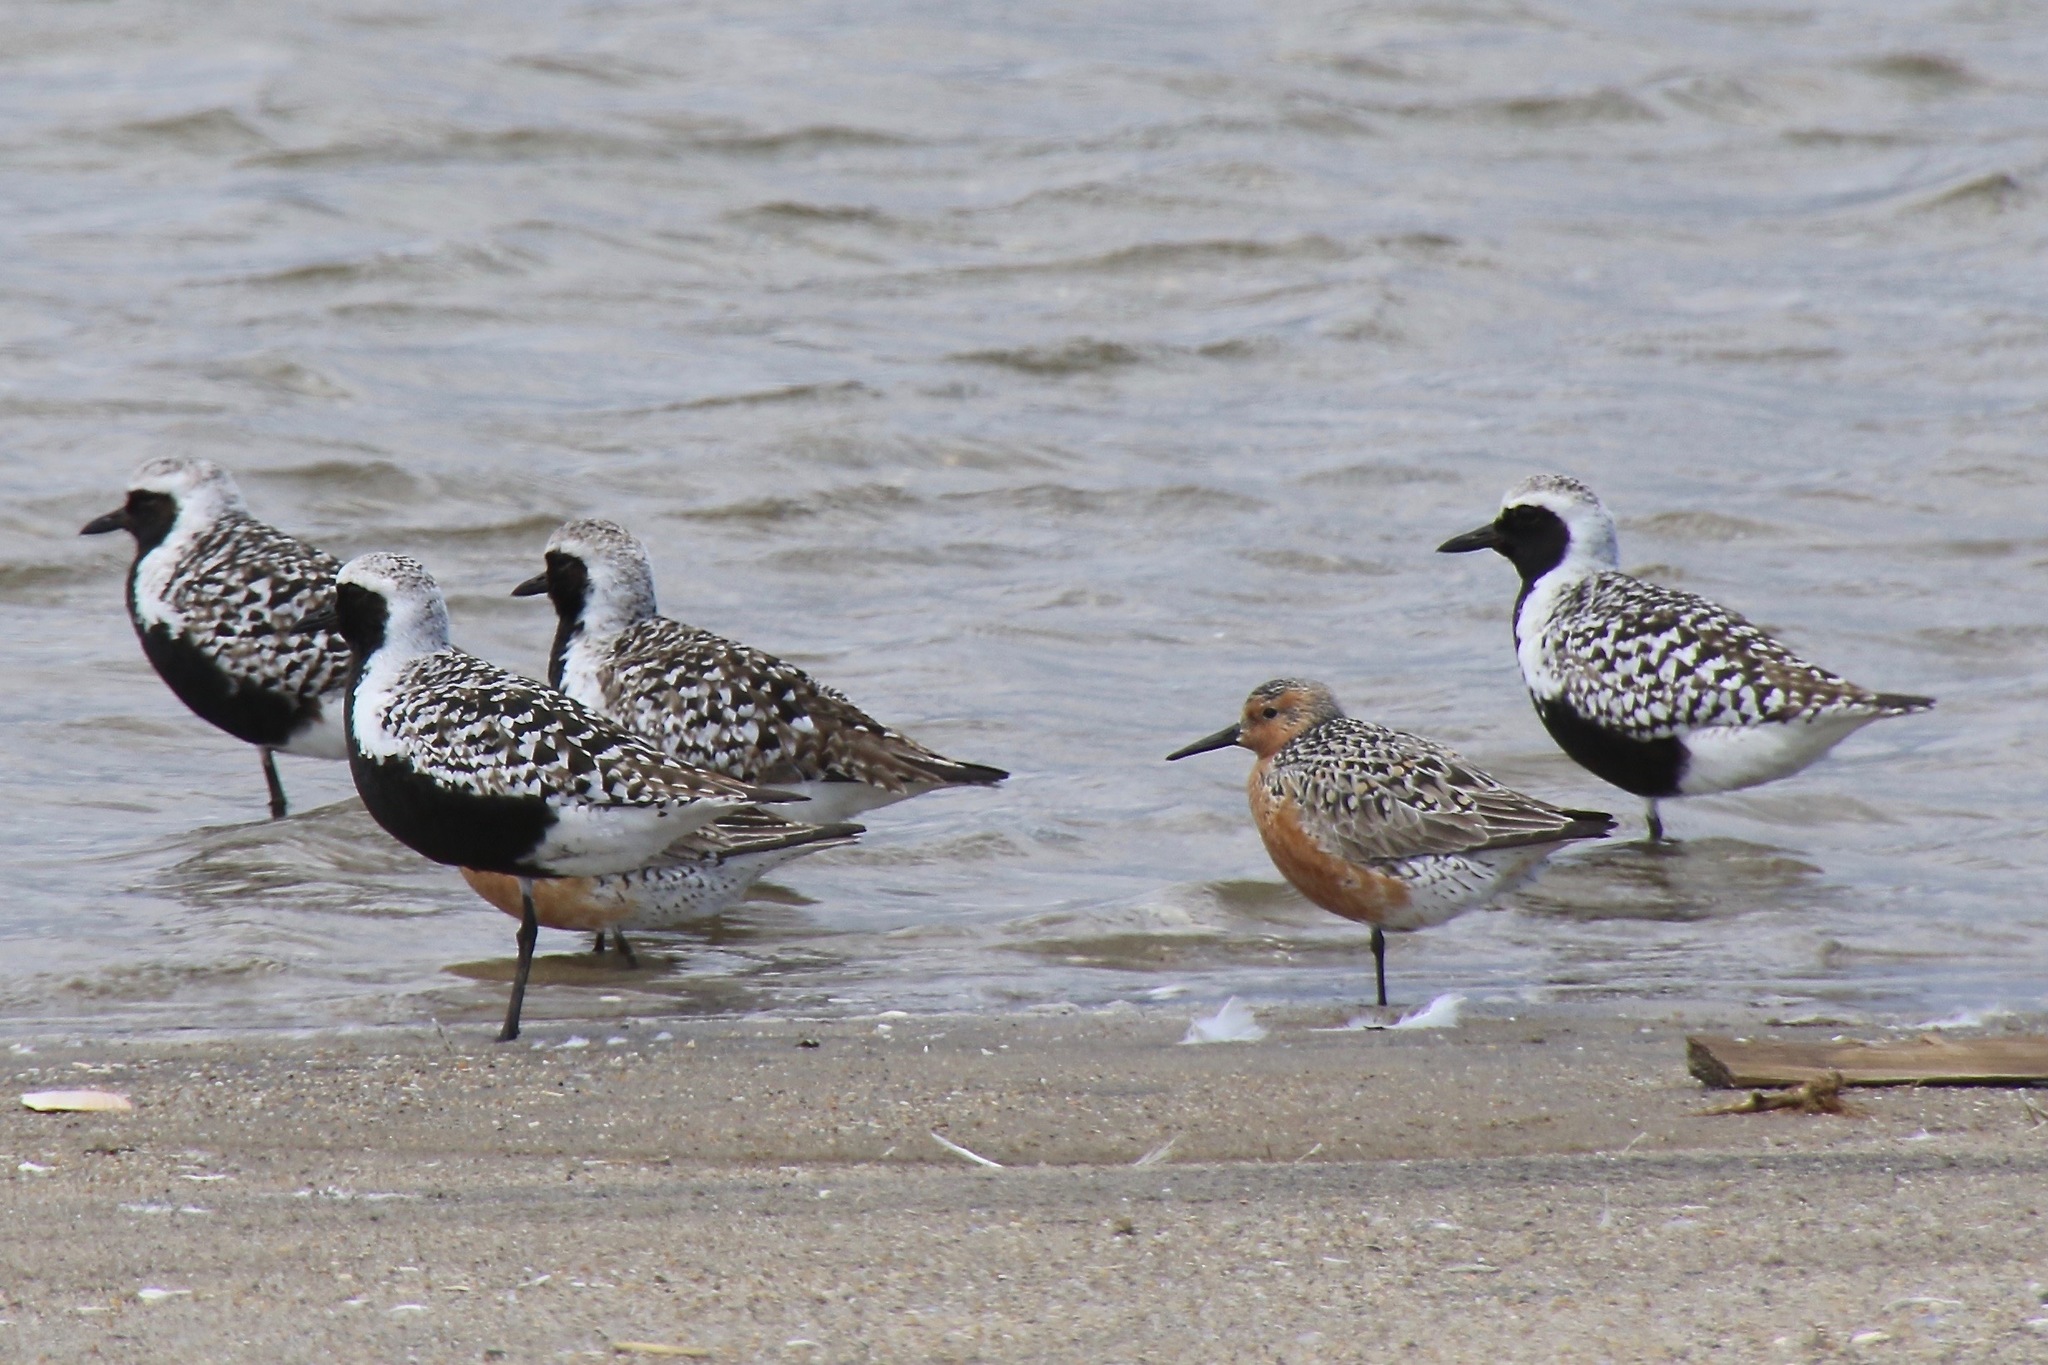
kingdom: Animalia
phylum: Chordata
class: Aves
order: Charadriiformes
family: Charadriidae
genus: Pluvialis
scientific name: Pluvialis squatarola
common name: Grey plover
